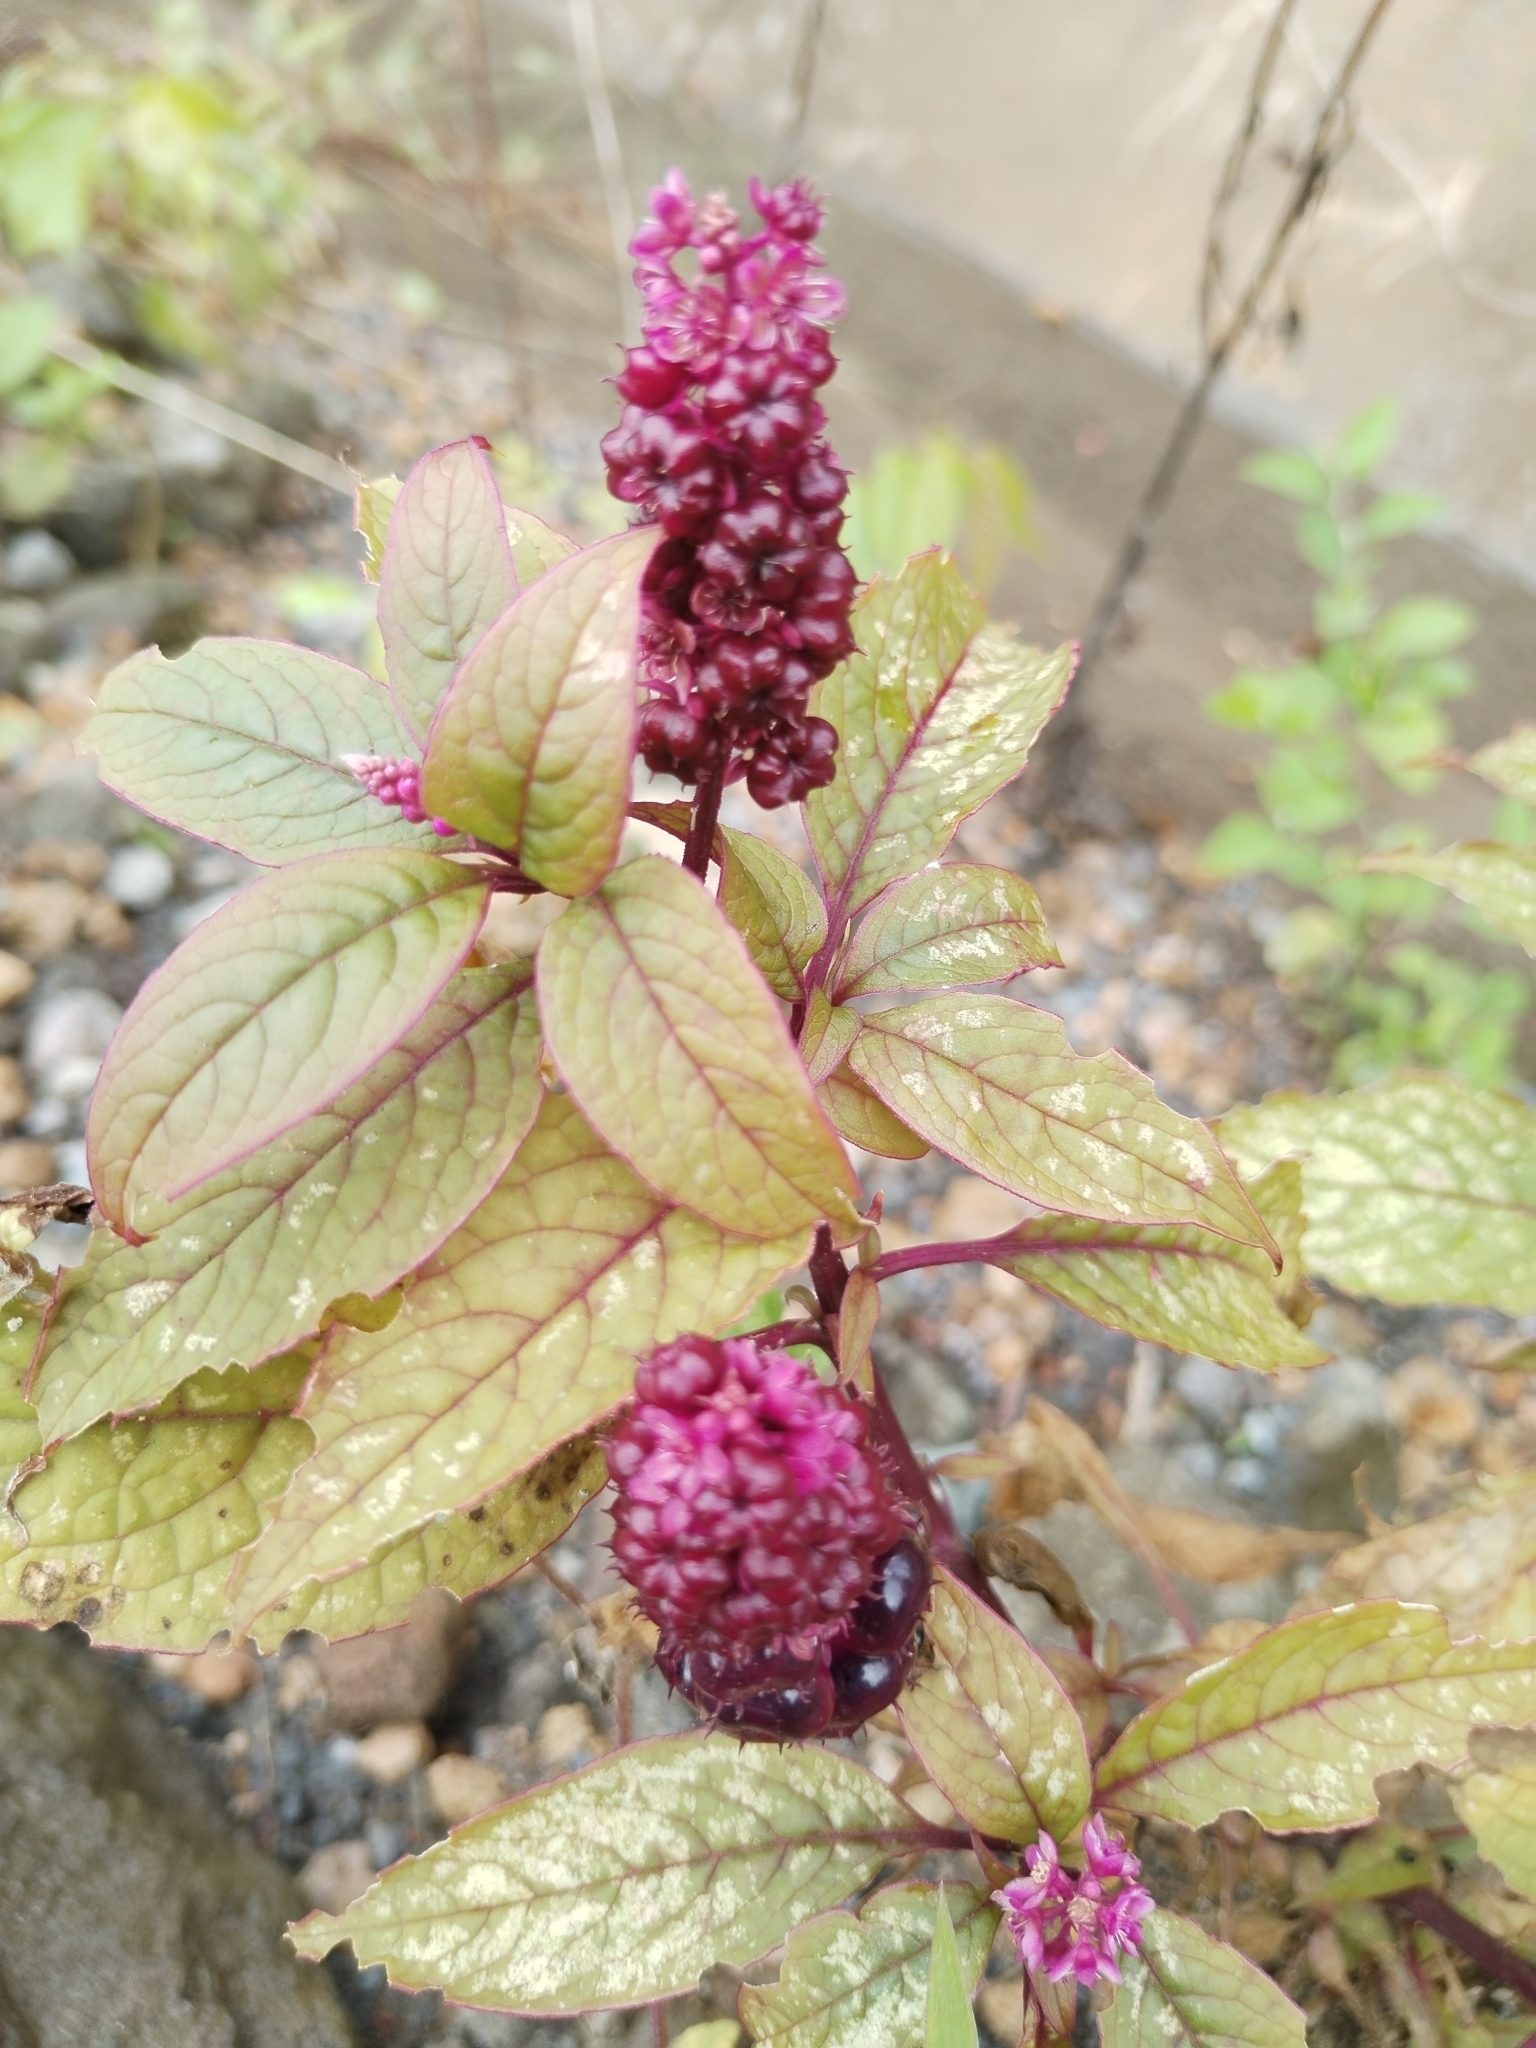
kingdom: Plantae
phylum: Tracheophyta
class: Magnoliopsida
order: Caryophyllales
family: Phytolaccaceae
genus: Phytolacca
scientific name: Phytolacca rugosa
